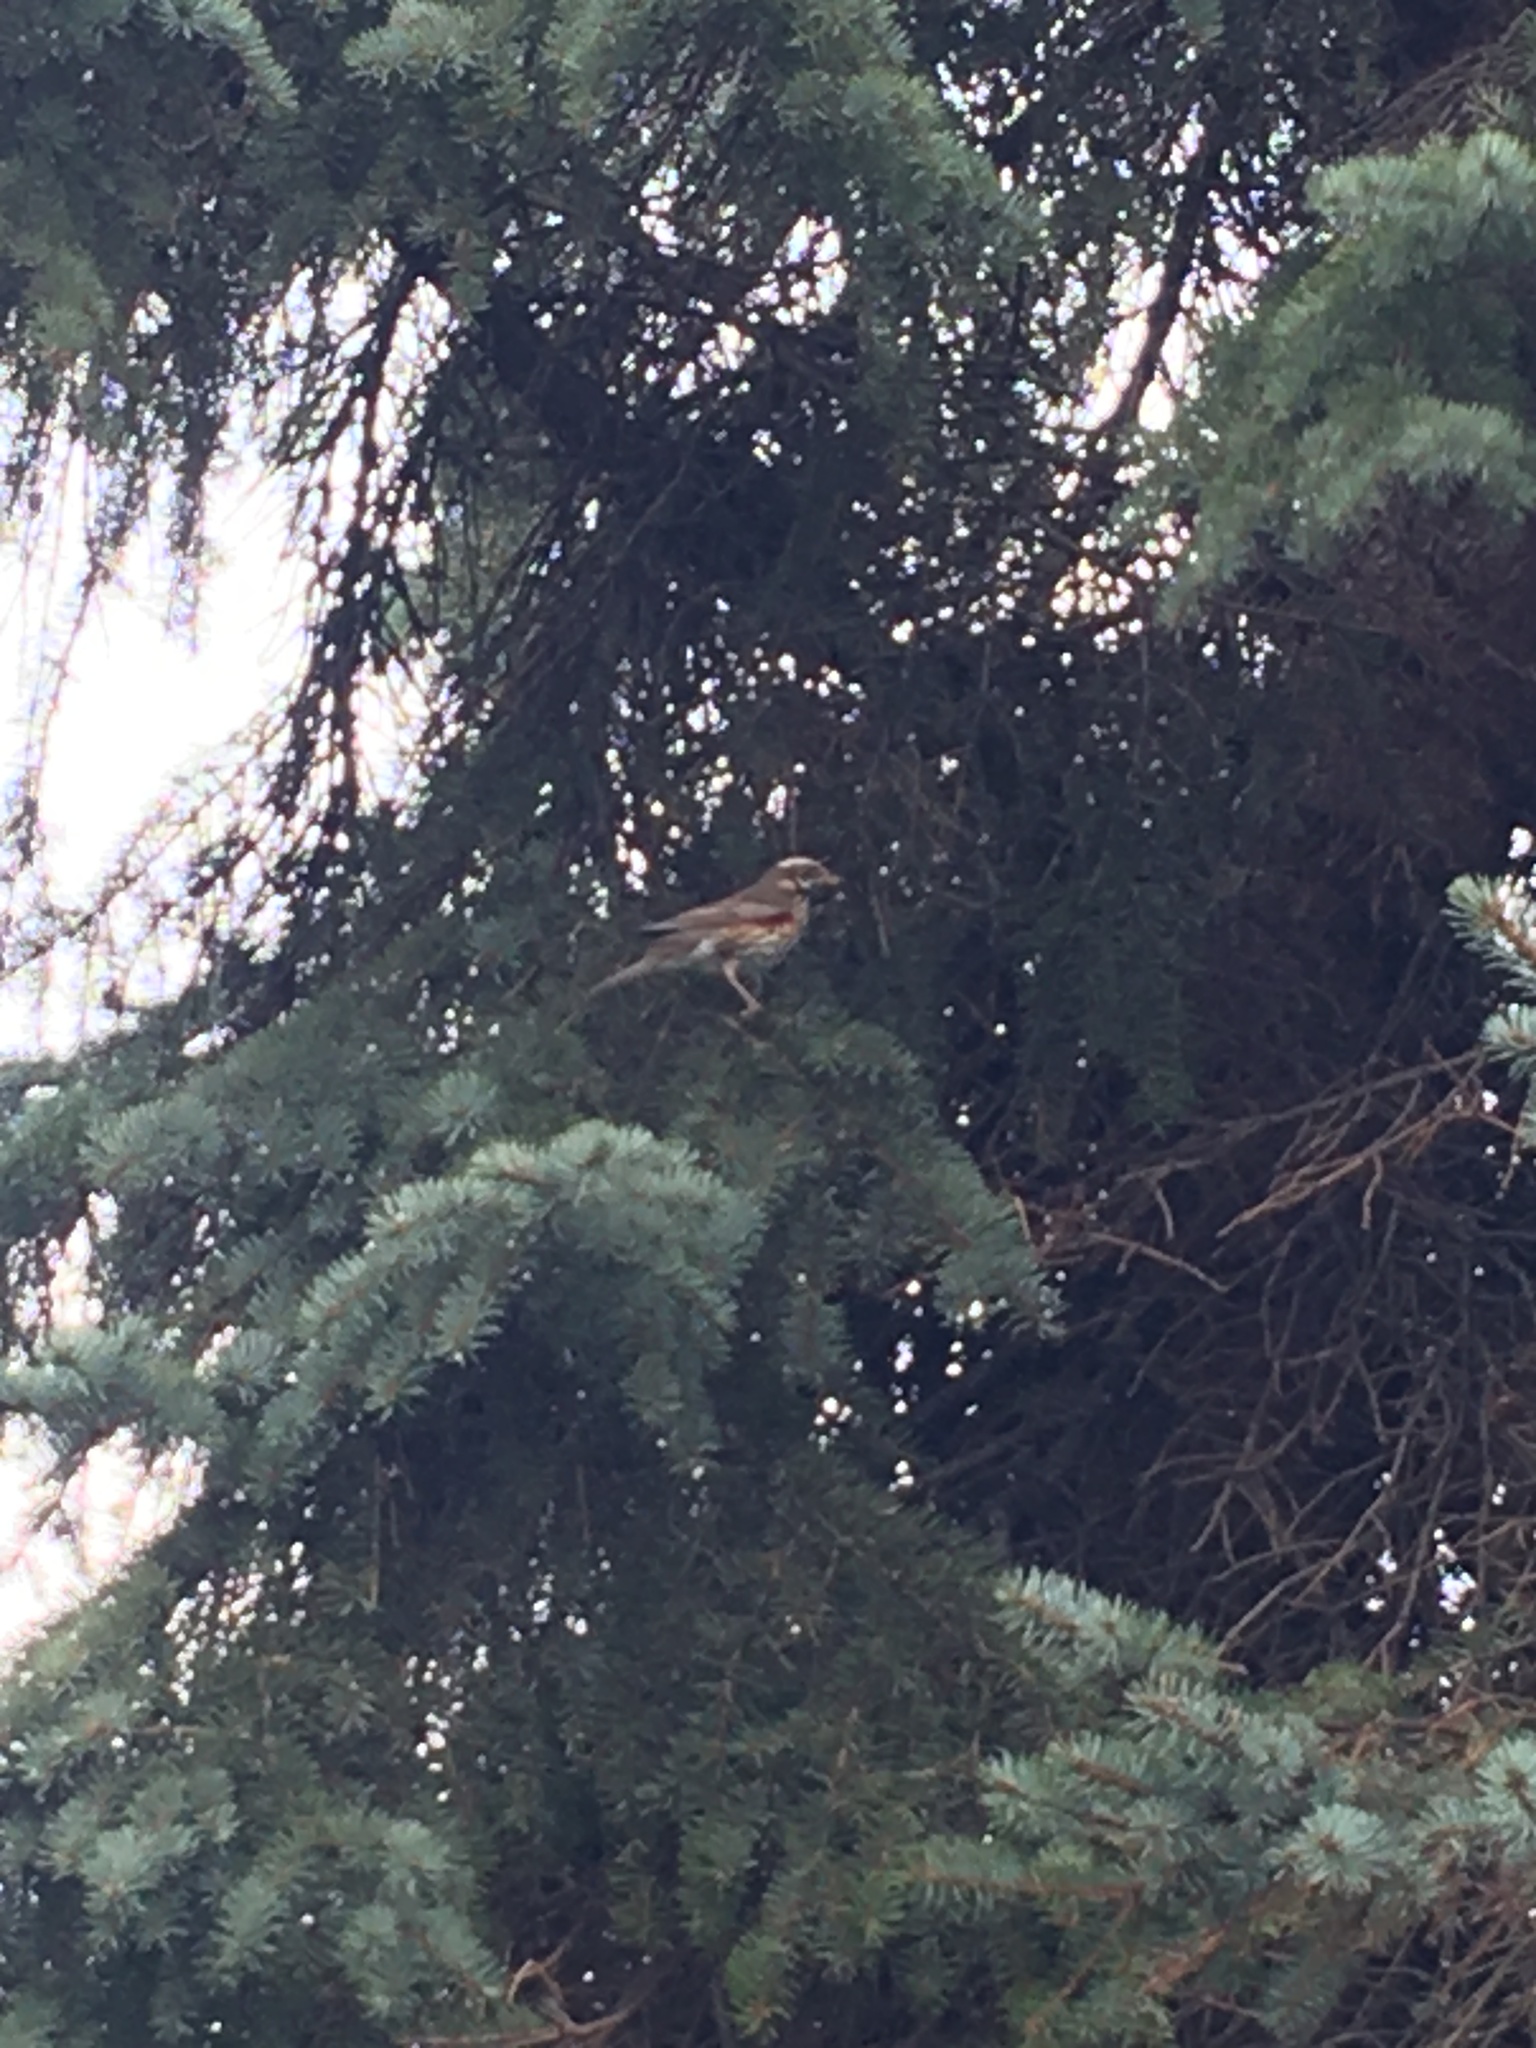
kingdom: Animalia
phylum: Chordata
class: Aves
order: Passeriformes
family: Turdidae
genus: Turdus
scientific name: Turdus iliacus
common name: Redwing
